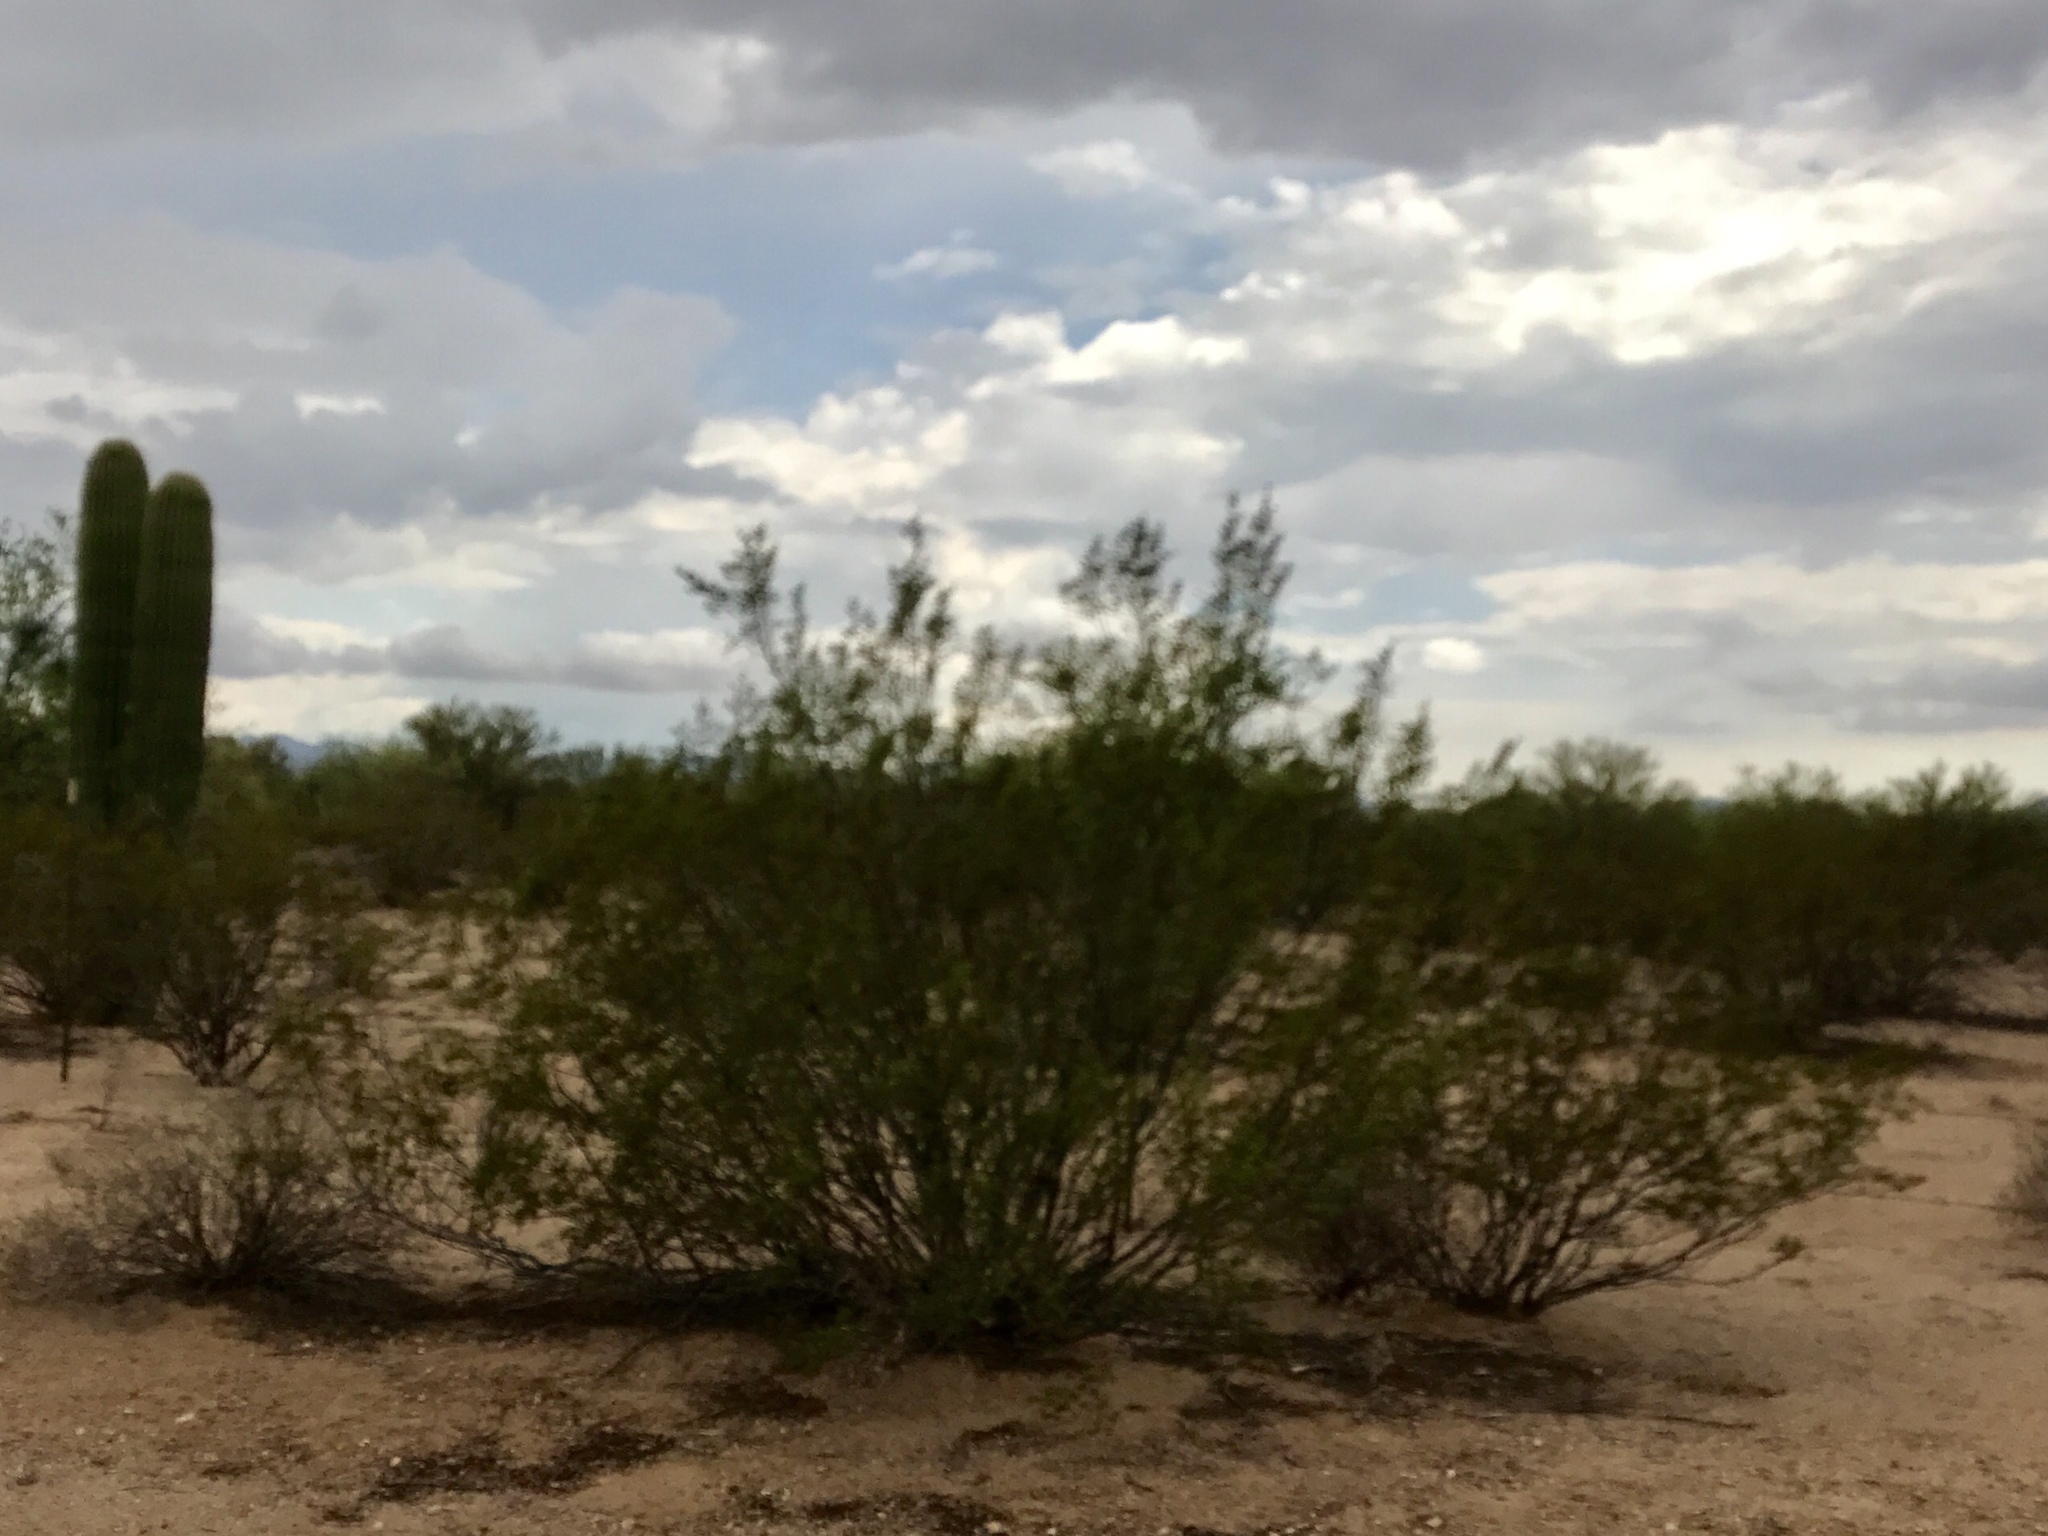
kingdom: Plantae
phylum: Tracheophyta
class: Magnoliopsida
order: Zygophyllales
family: Zygophyllaceae
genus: Larrea
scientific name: Larrea tridentata
